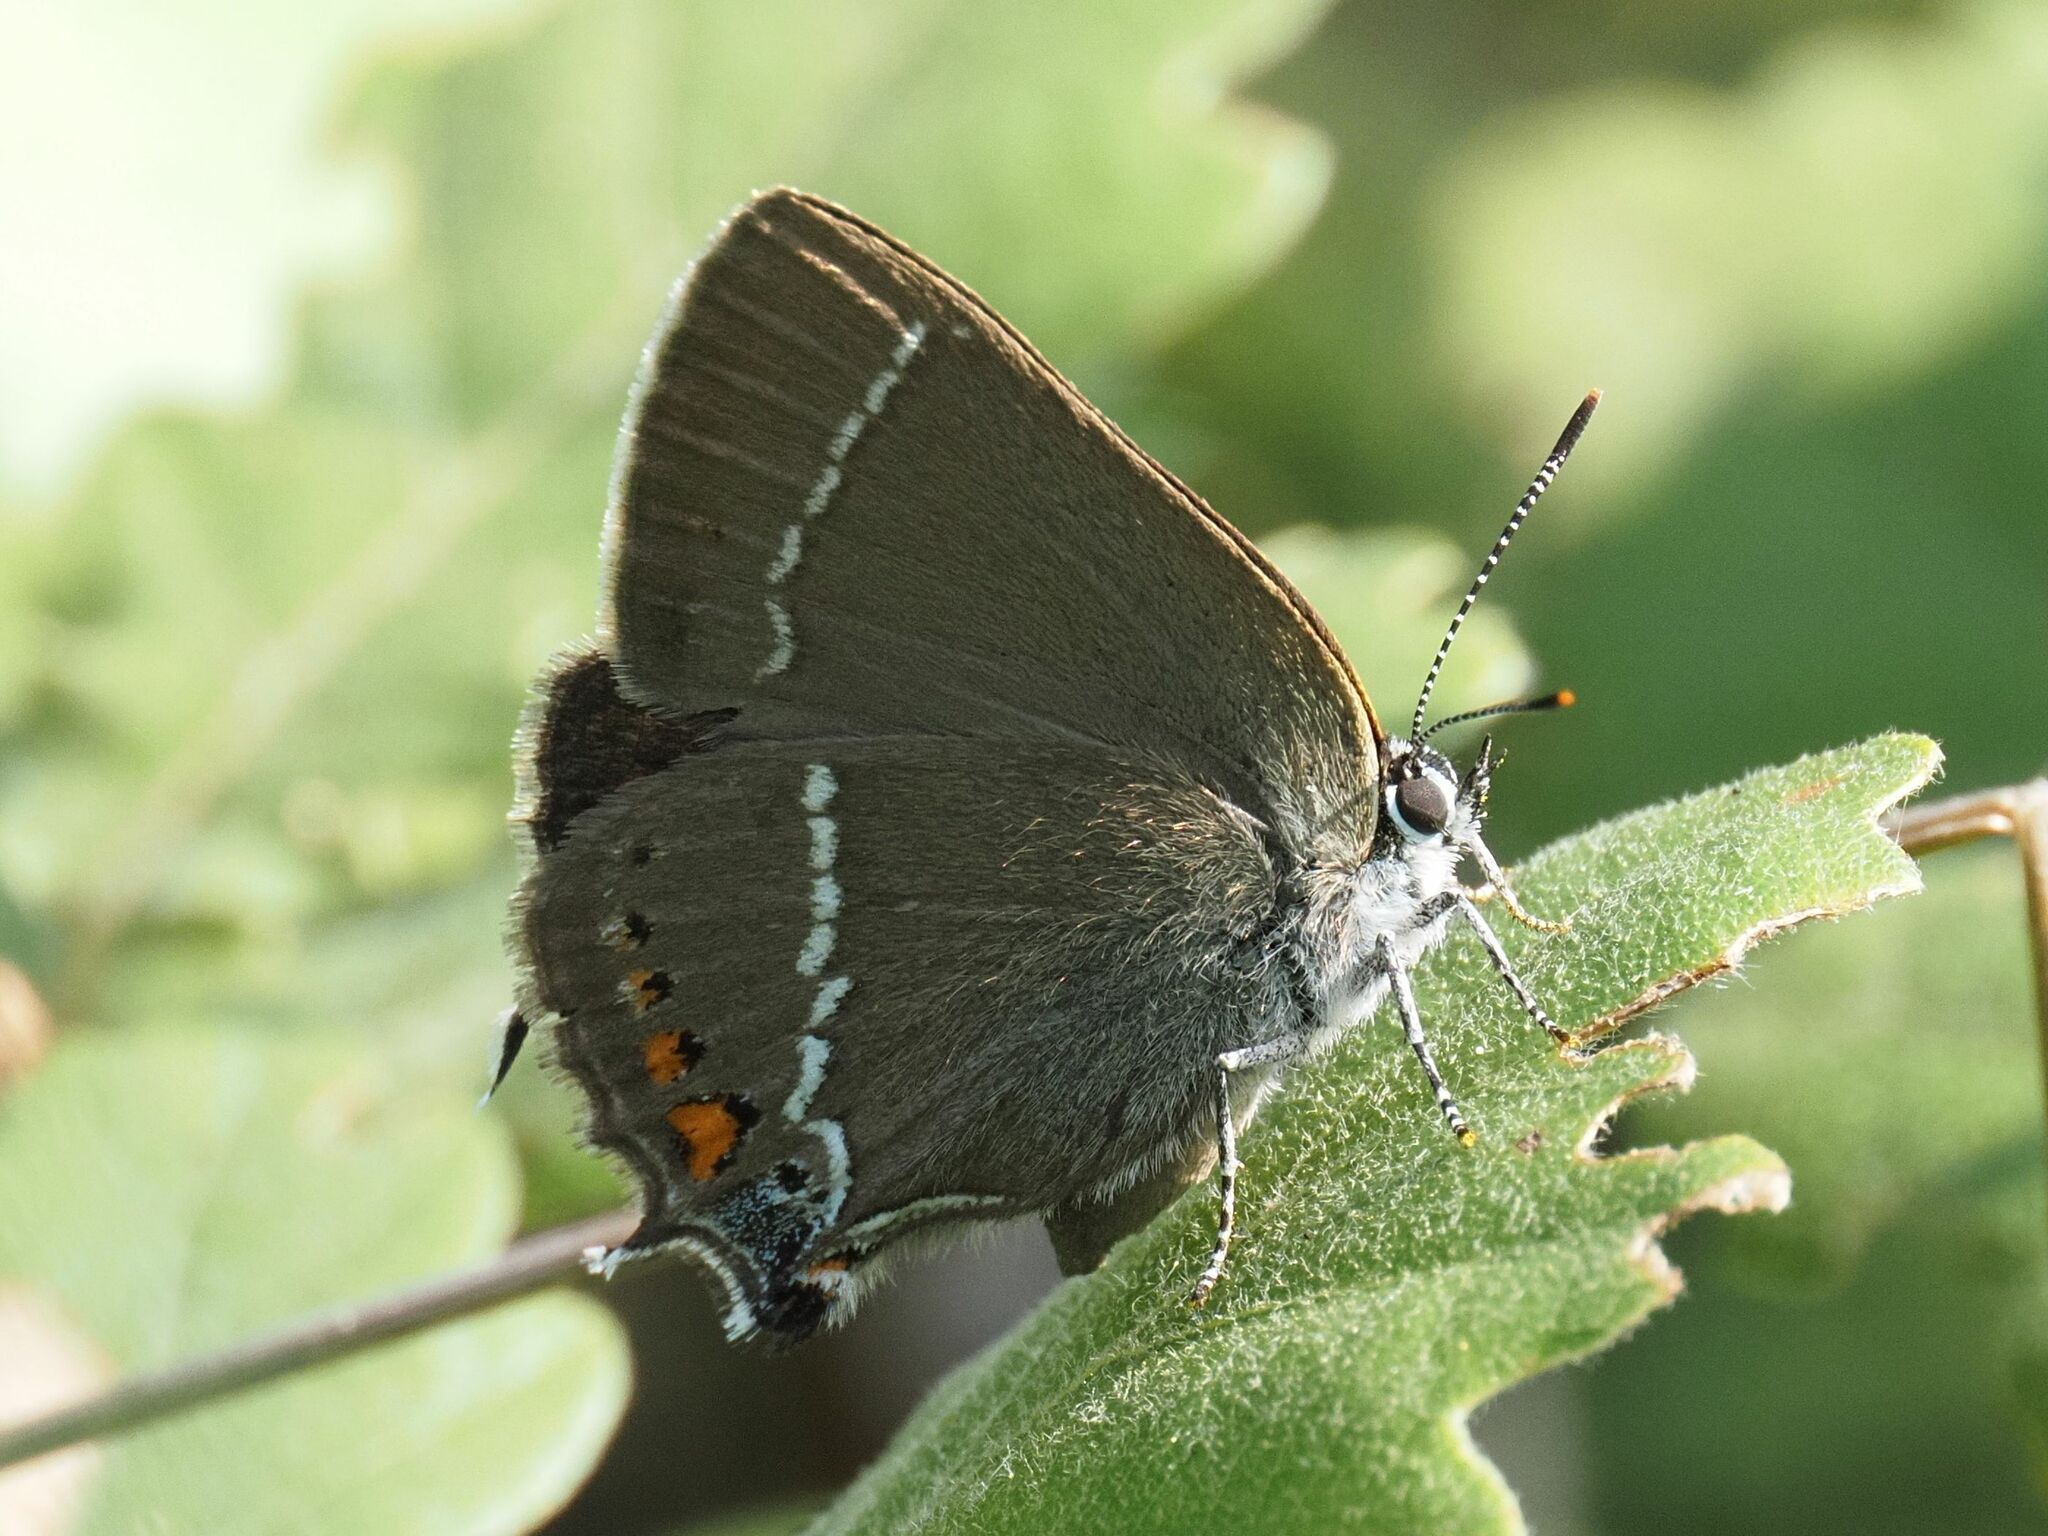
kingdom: Animalia
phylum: Arthropoda
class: Insecta
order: Lepidoptera
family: Lycaenidae
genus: Tuttiola
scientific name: Tuttiola spini
